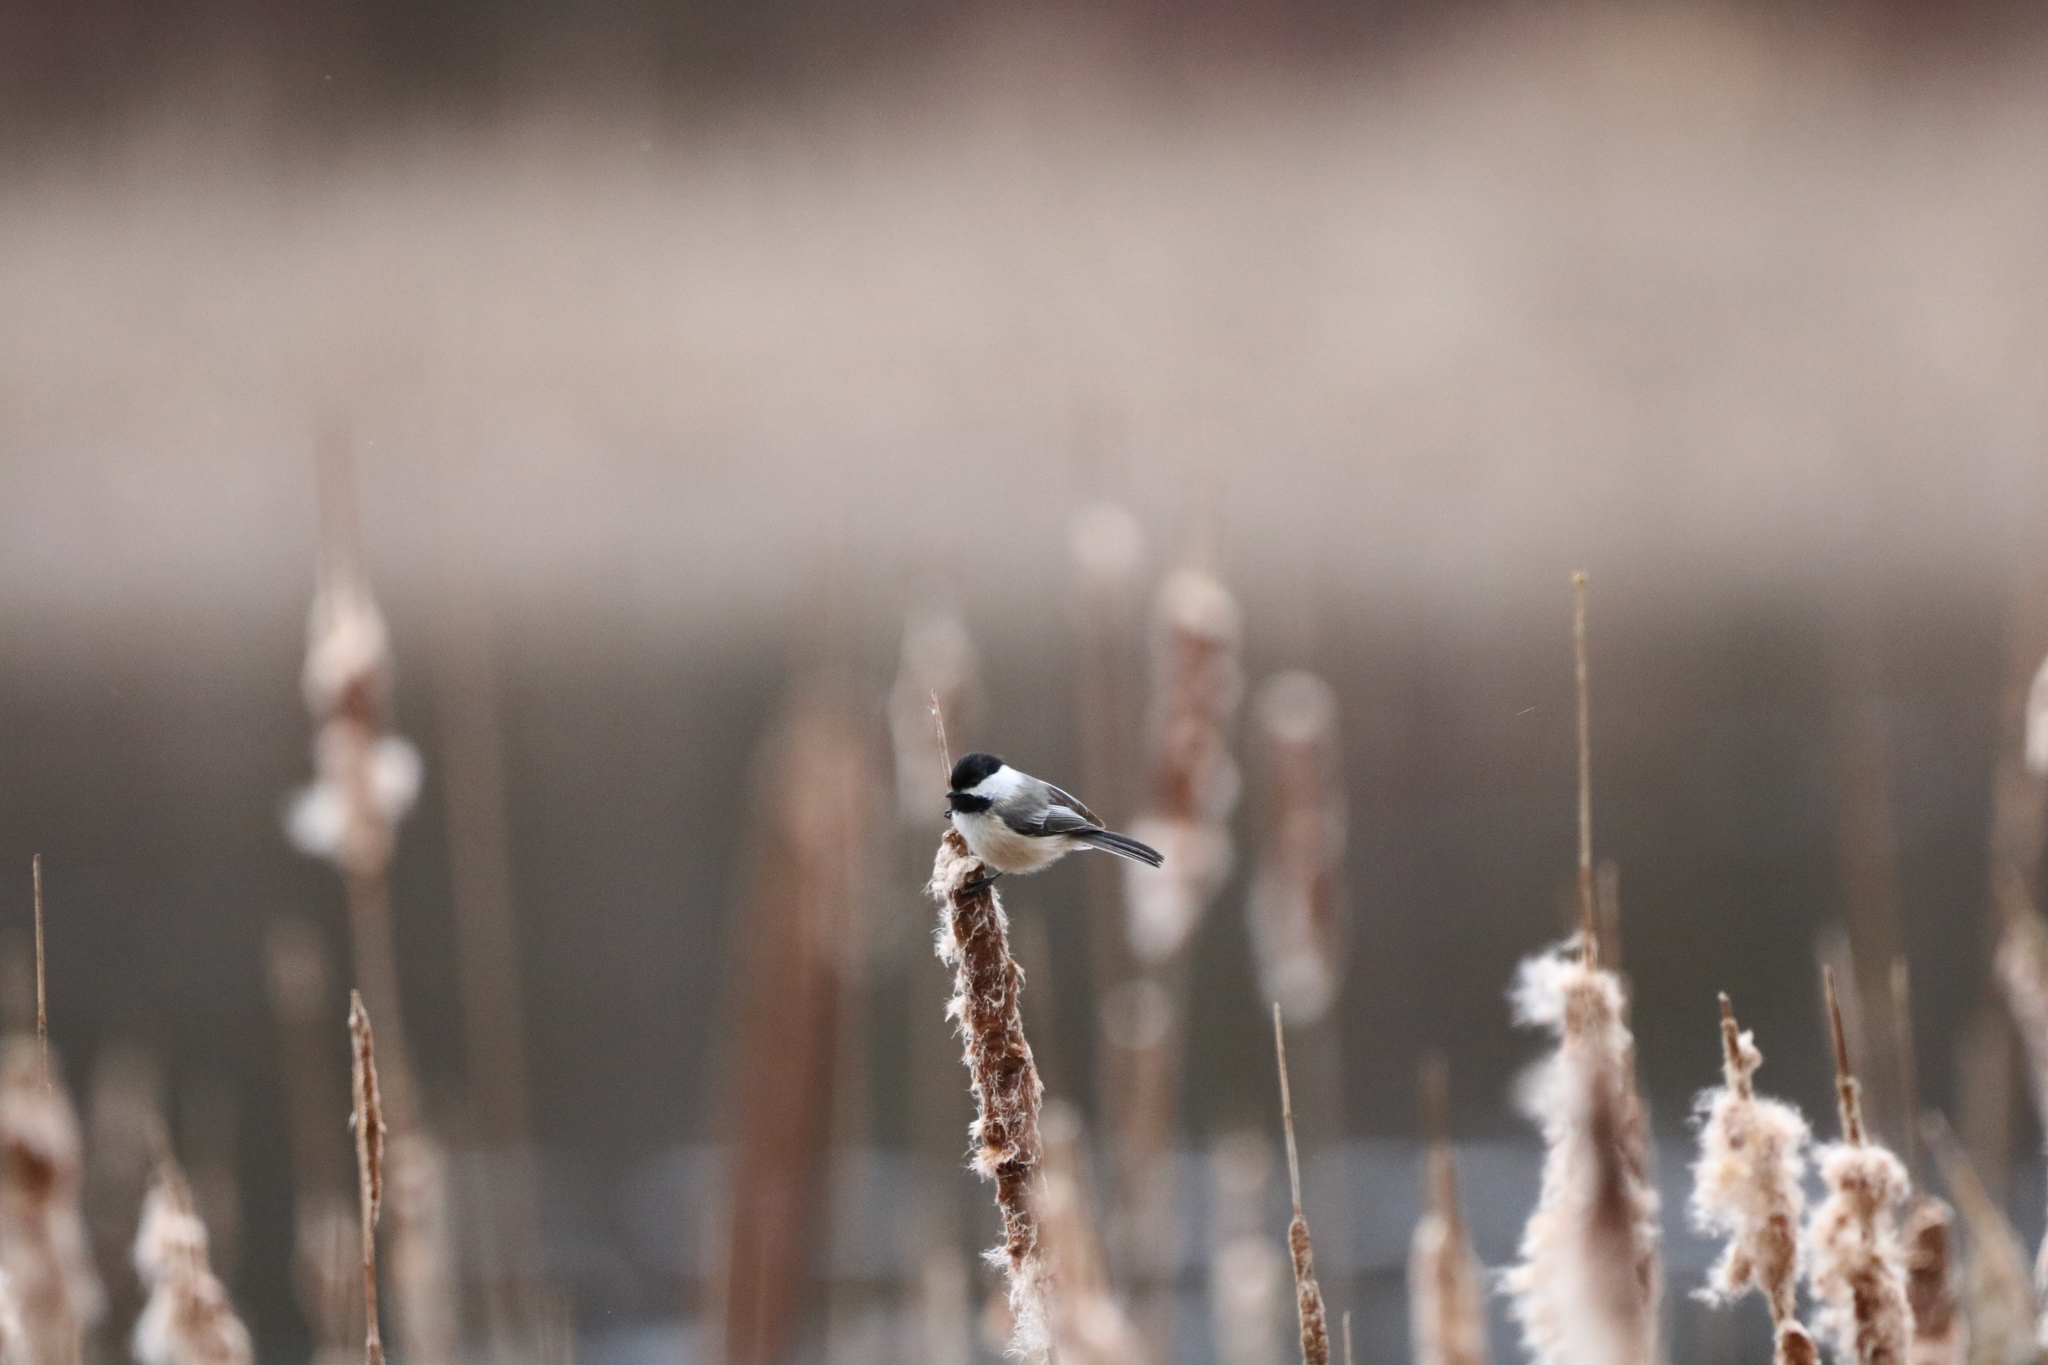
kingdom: Animalia
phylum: Chordata
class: Aves
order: Passeriformes
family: Paridae
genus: Poecile
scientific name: Poecile atricapillus
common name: Black-capped chickadee
